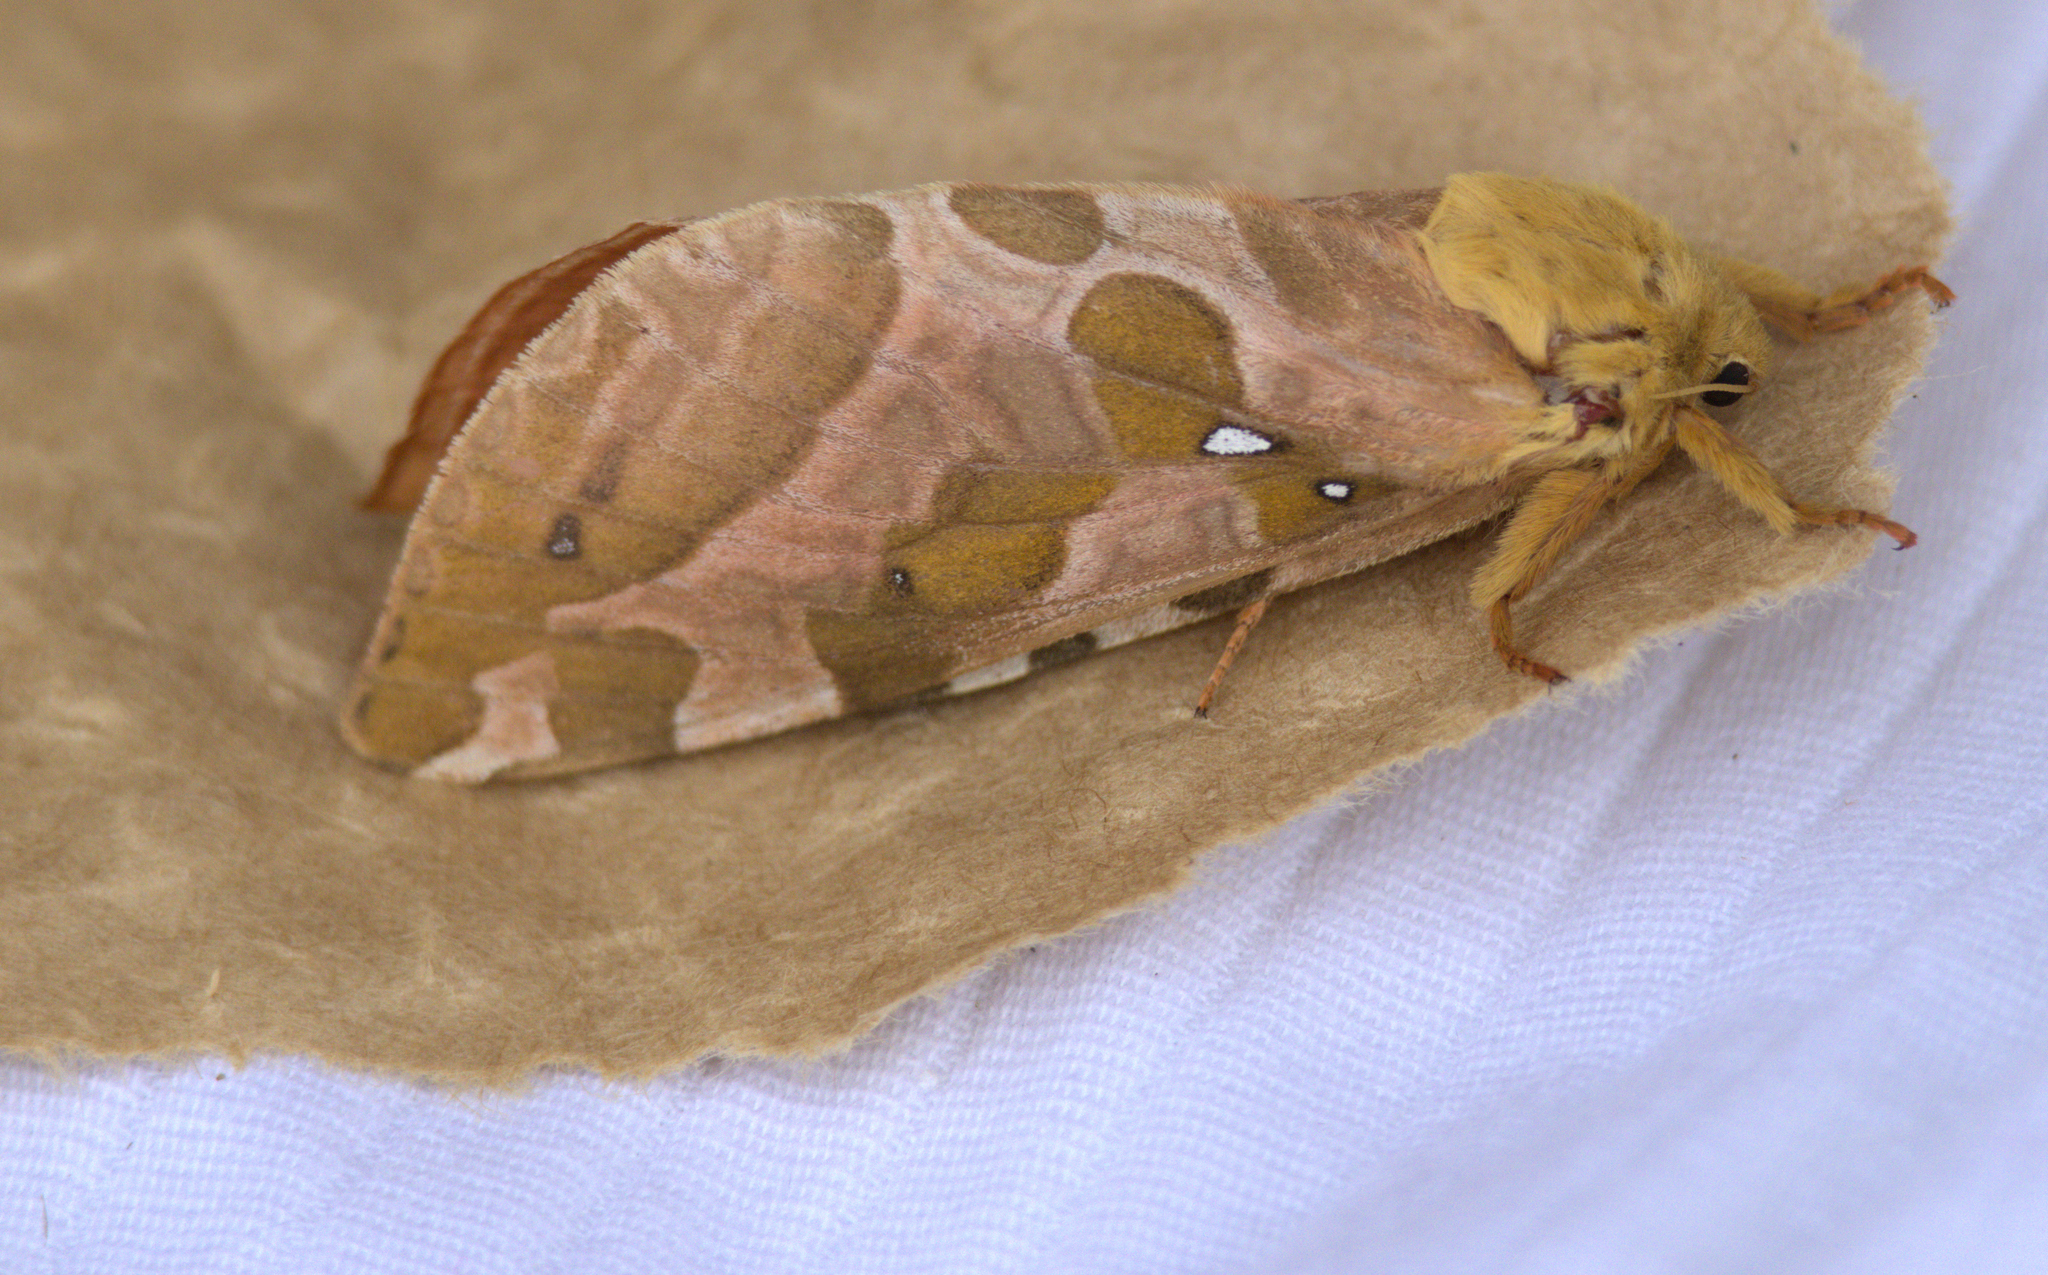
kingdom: Animalia
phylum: Arthropoda
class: Insecta
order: Lepidoptera
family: Hepialidae
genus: Sthenopis
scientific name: Sthenopis purpurascens
